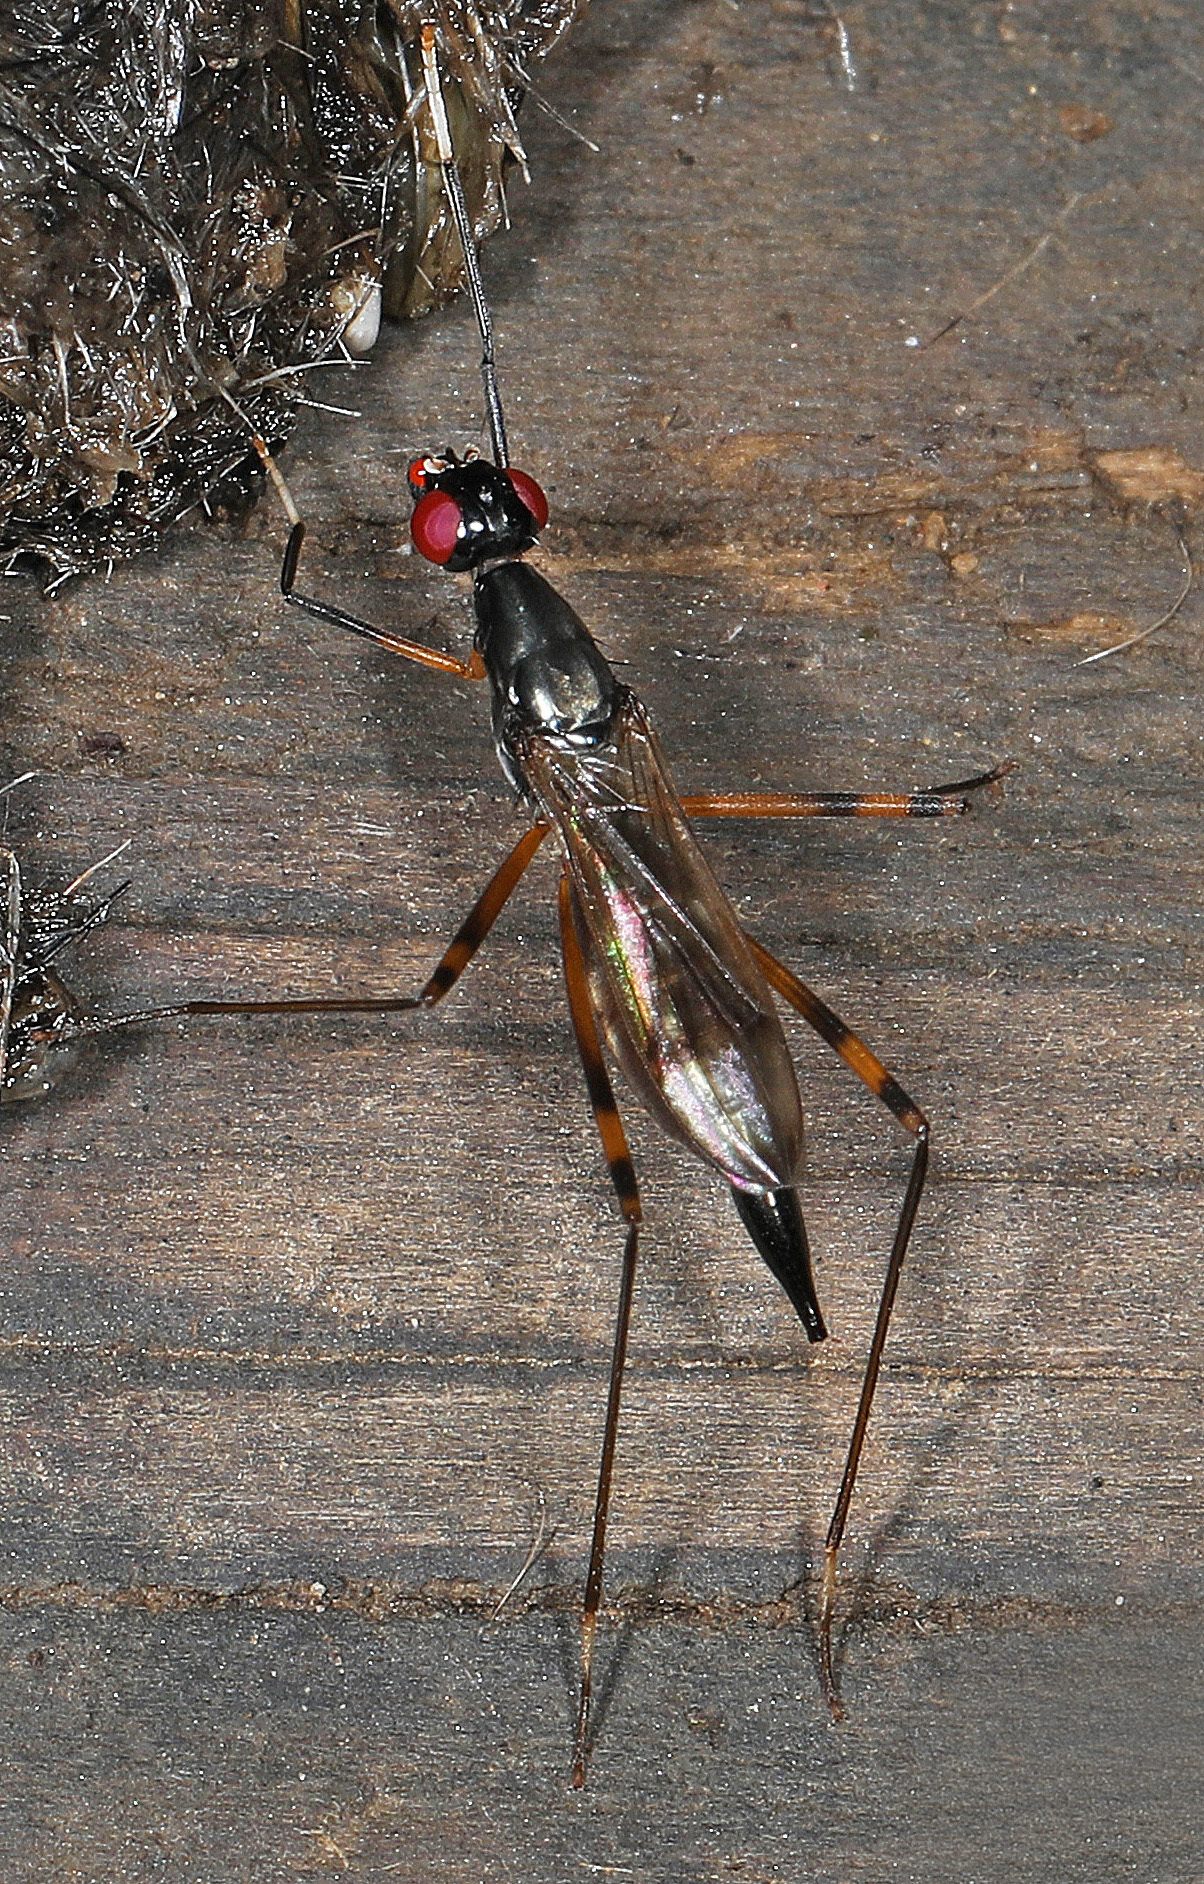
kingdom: Animalia
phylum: Arthropoda
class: Insecta
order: Diptera
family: Micropezidae
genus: Rainieria
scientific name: Rainieria antennaepes
